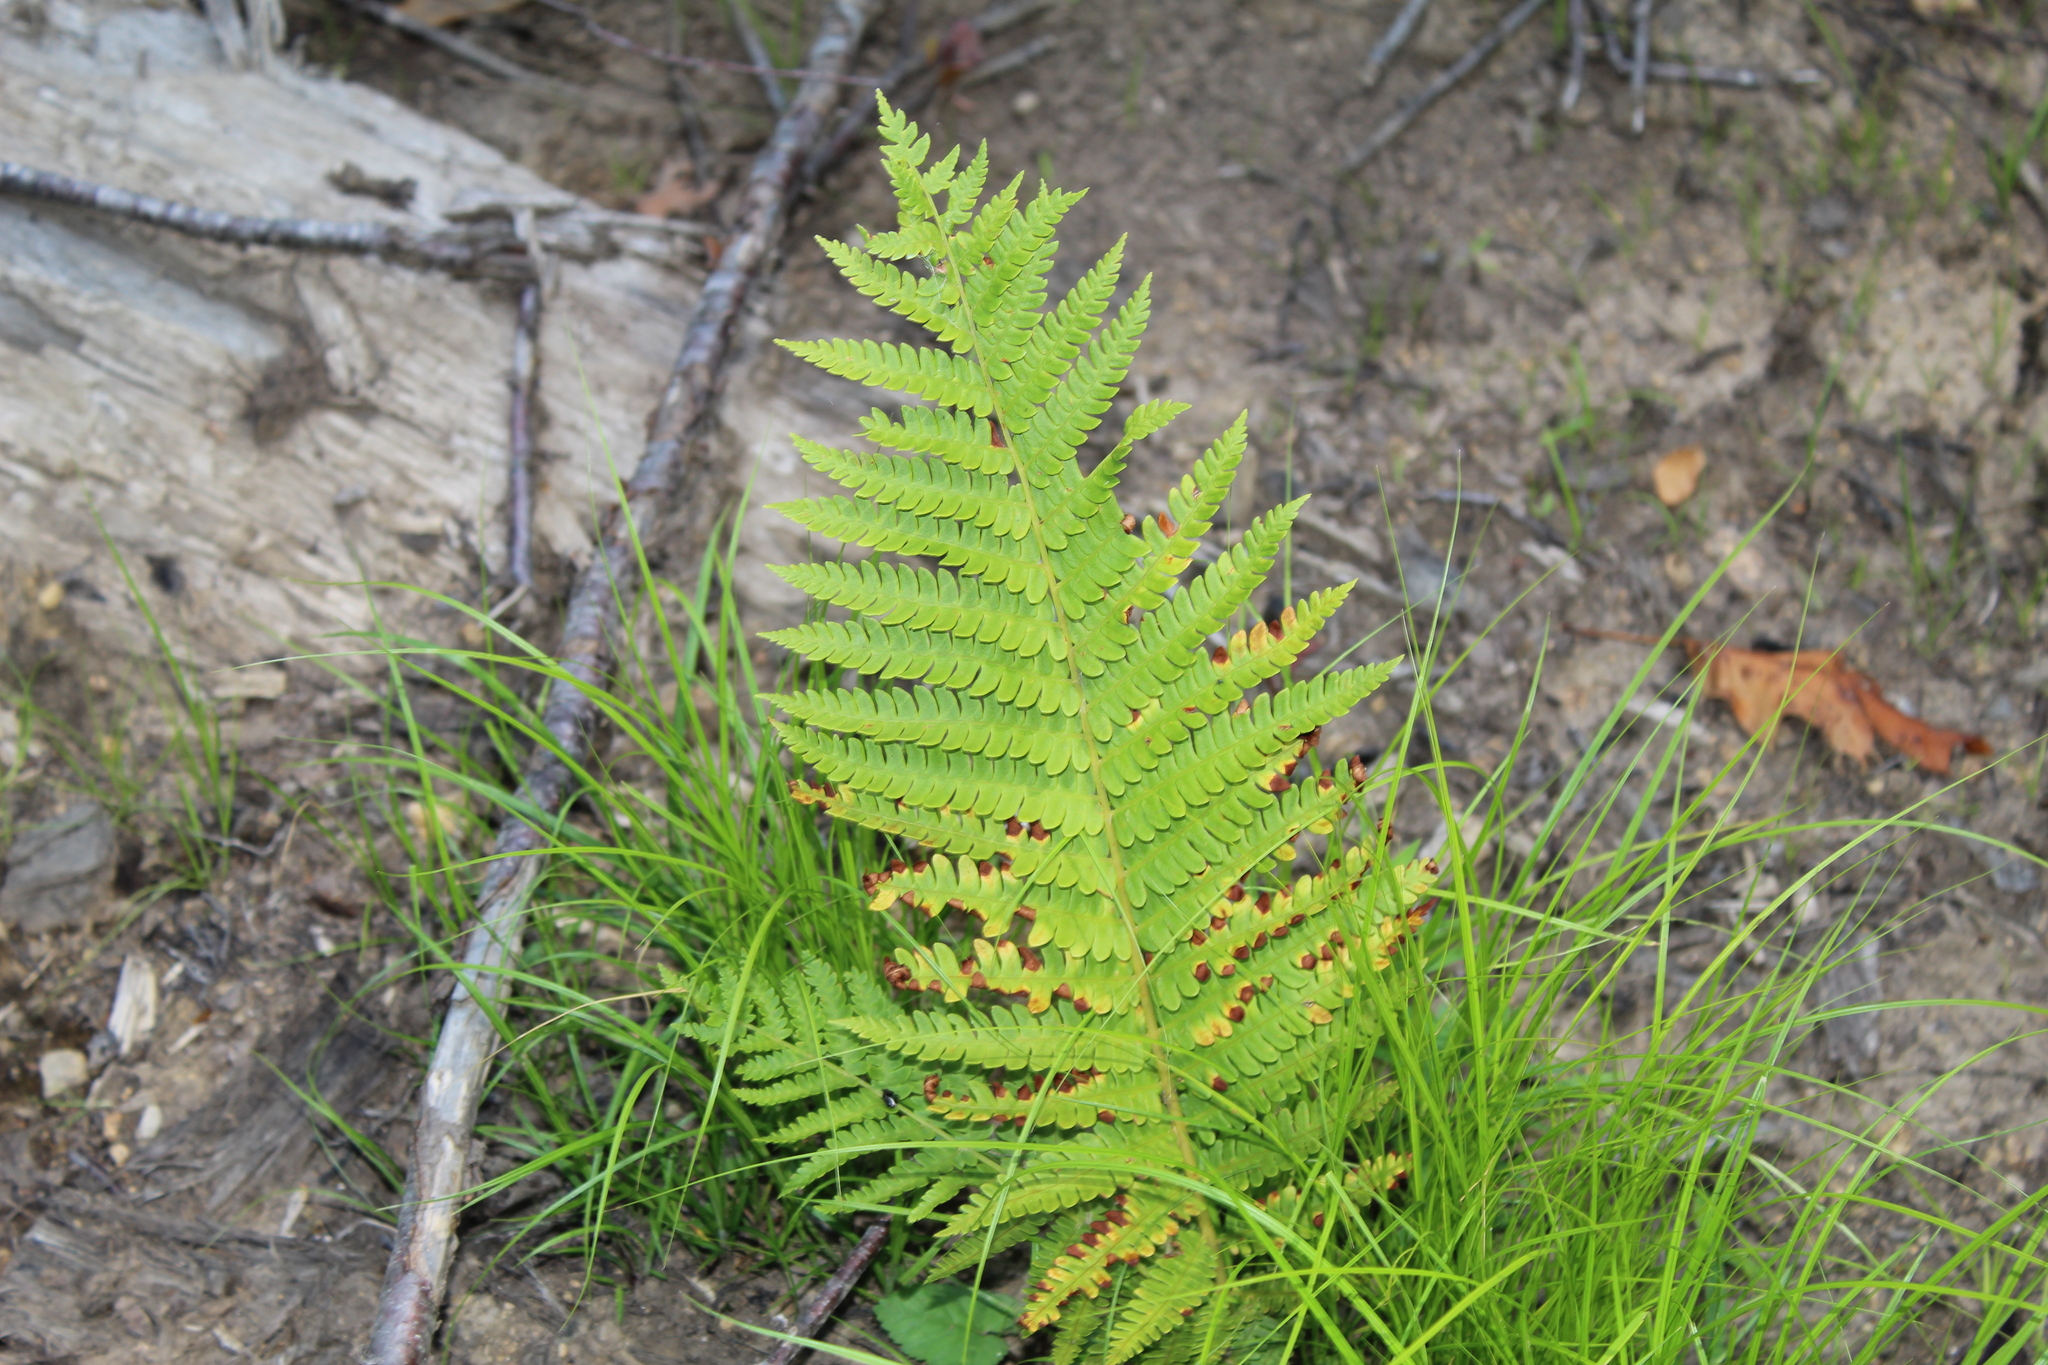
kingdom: Plantae
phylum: Tracheophyta
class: Polypodiopsida
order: Osmundales
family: Osmundaceae
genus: Osmundastrum
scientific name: Osmundastrum cinnamomeum
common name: Cinnamon fern
